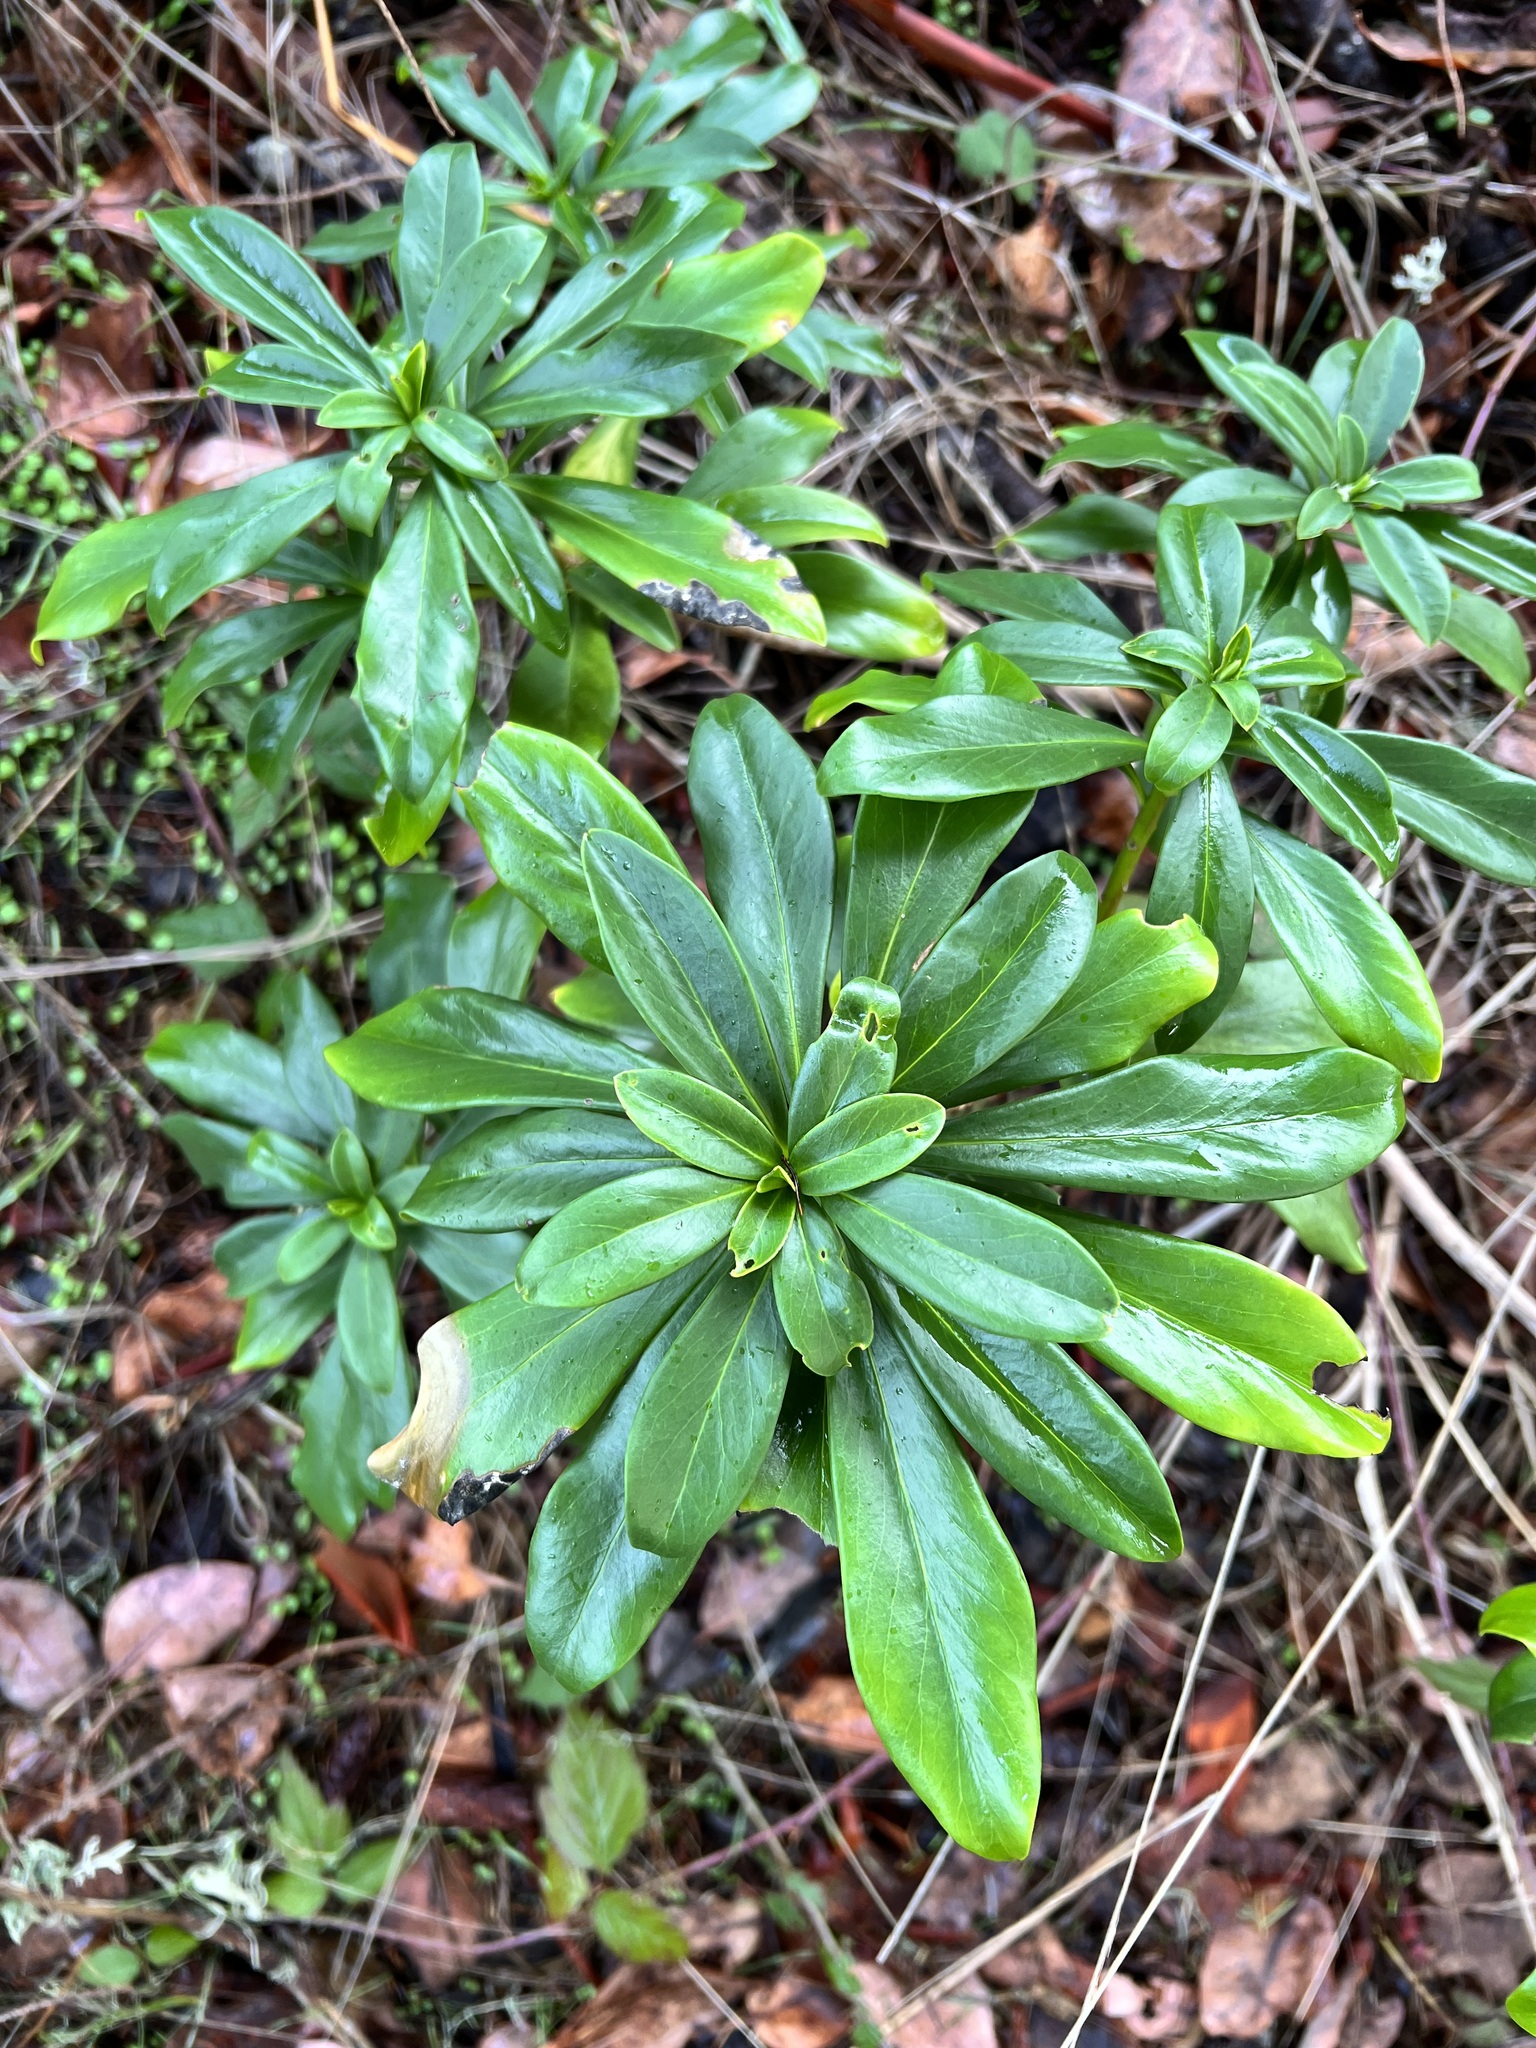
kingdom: Plantae
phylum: Tracheophyta
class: Magnoliopsida
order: Malvales
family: Thymelaeaceae
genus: Daphne
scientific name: Daphne laureola
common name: Spurge-laurel
